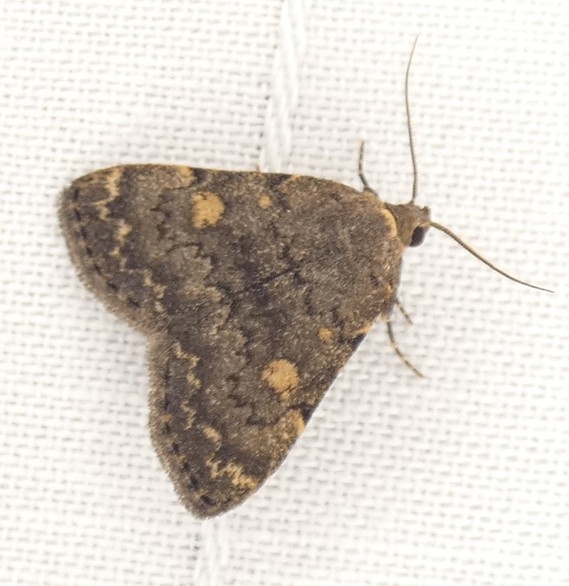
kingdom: Animalia
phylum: Arthropoda
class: Insecta
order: Lepidoptera
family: Erebidae
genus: Idia
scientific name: Idia aemula
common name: Common idia moth
